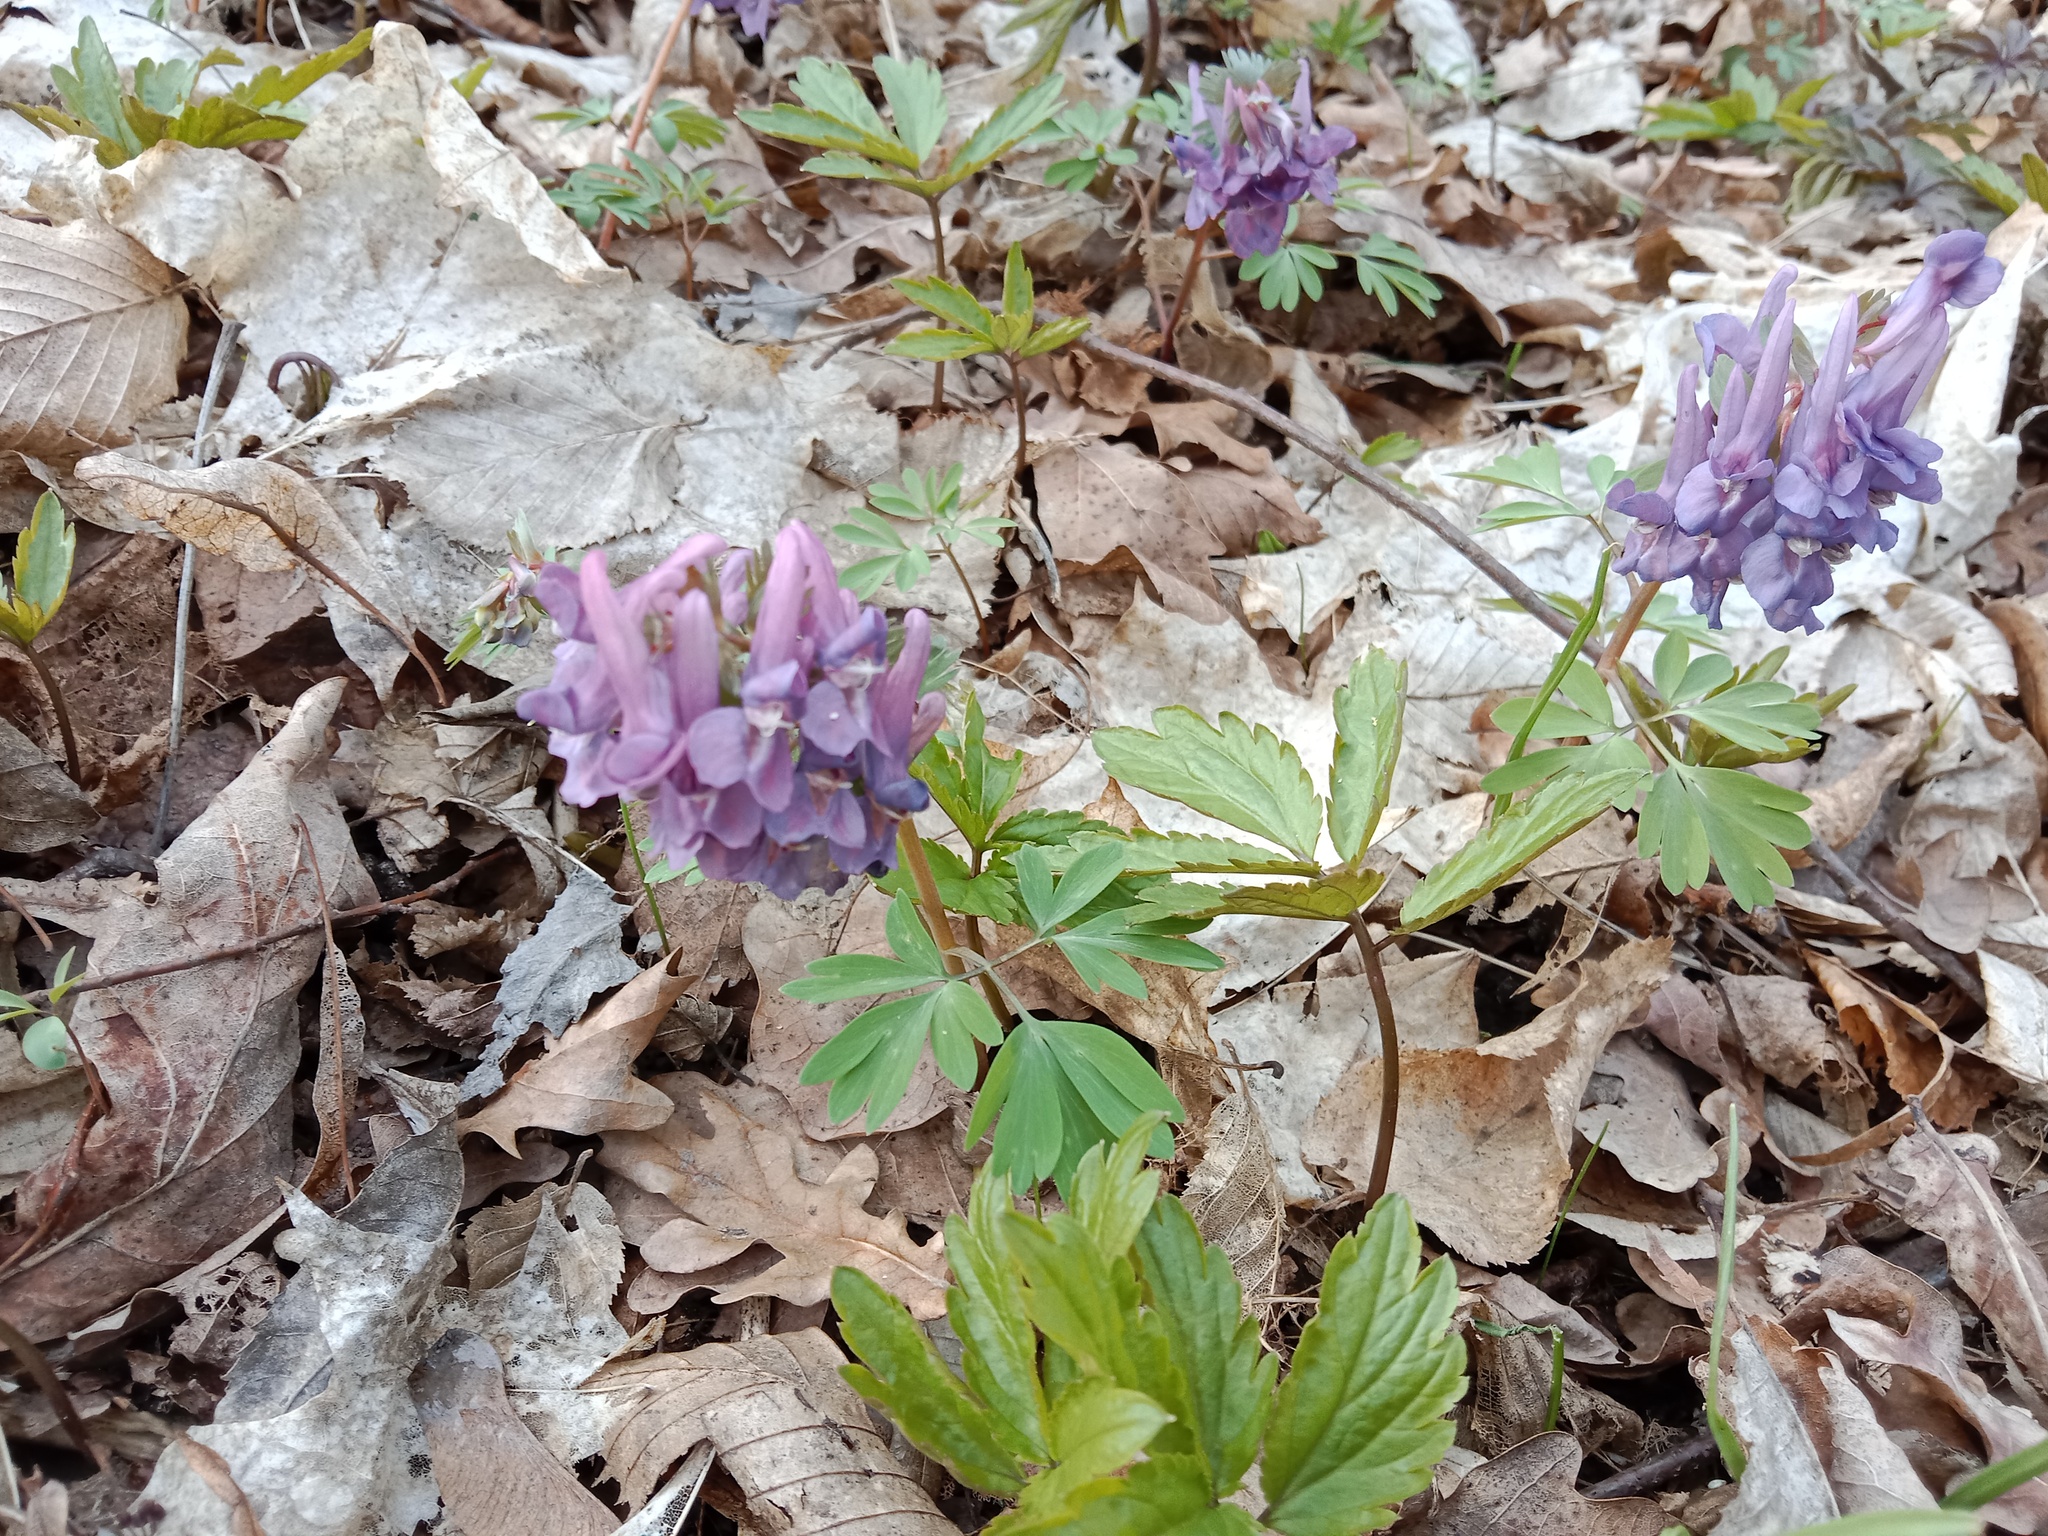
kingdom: Plantae
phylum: Tracheophyta
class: Magnoliopsida
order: Ranunculales
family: Papaveraceae
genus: Corydalis
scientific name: Corydalis solida
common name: Bird-in-a-bush
